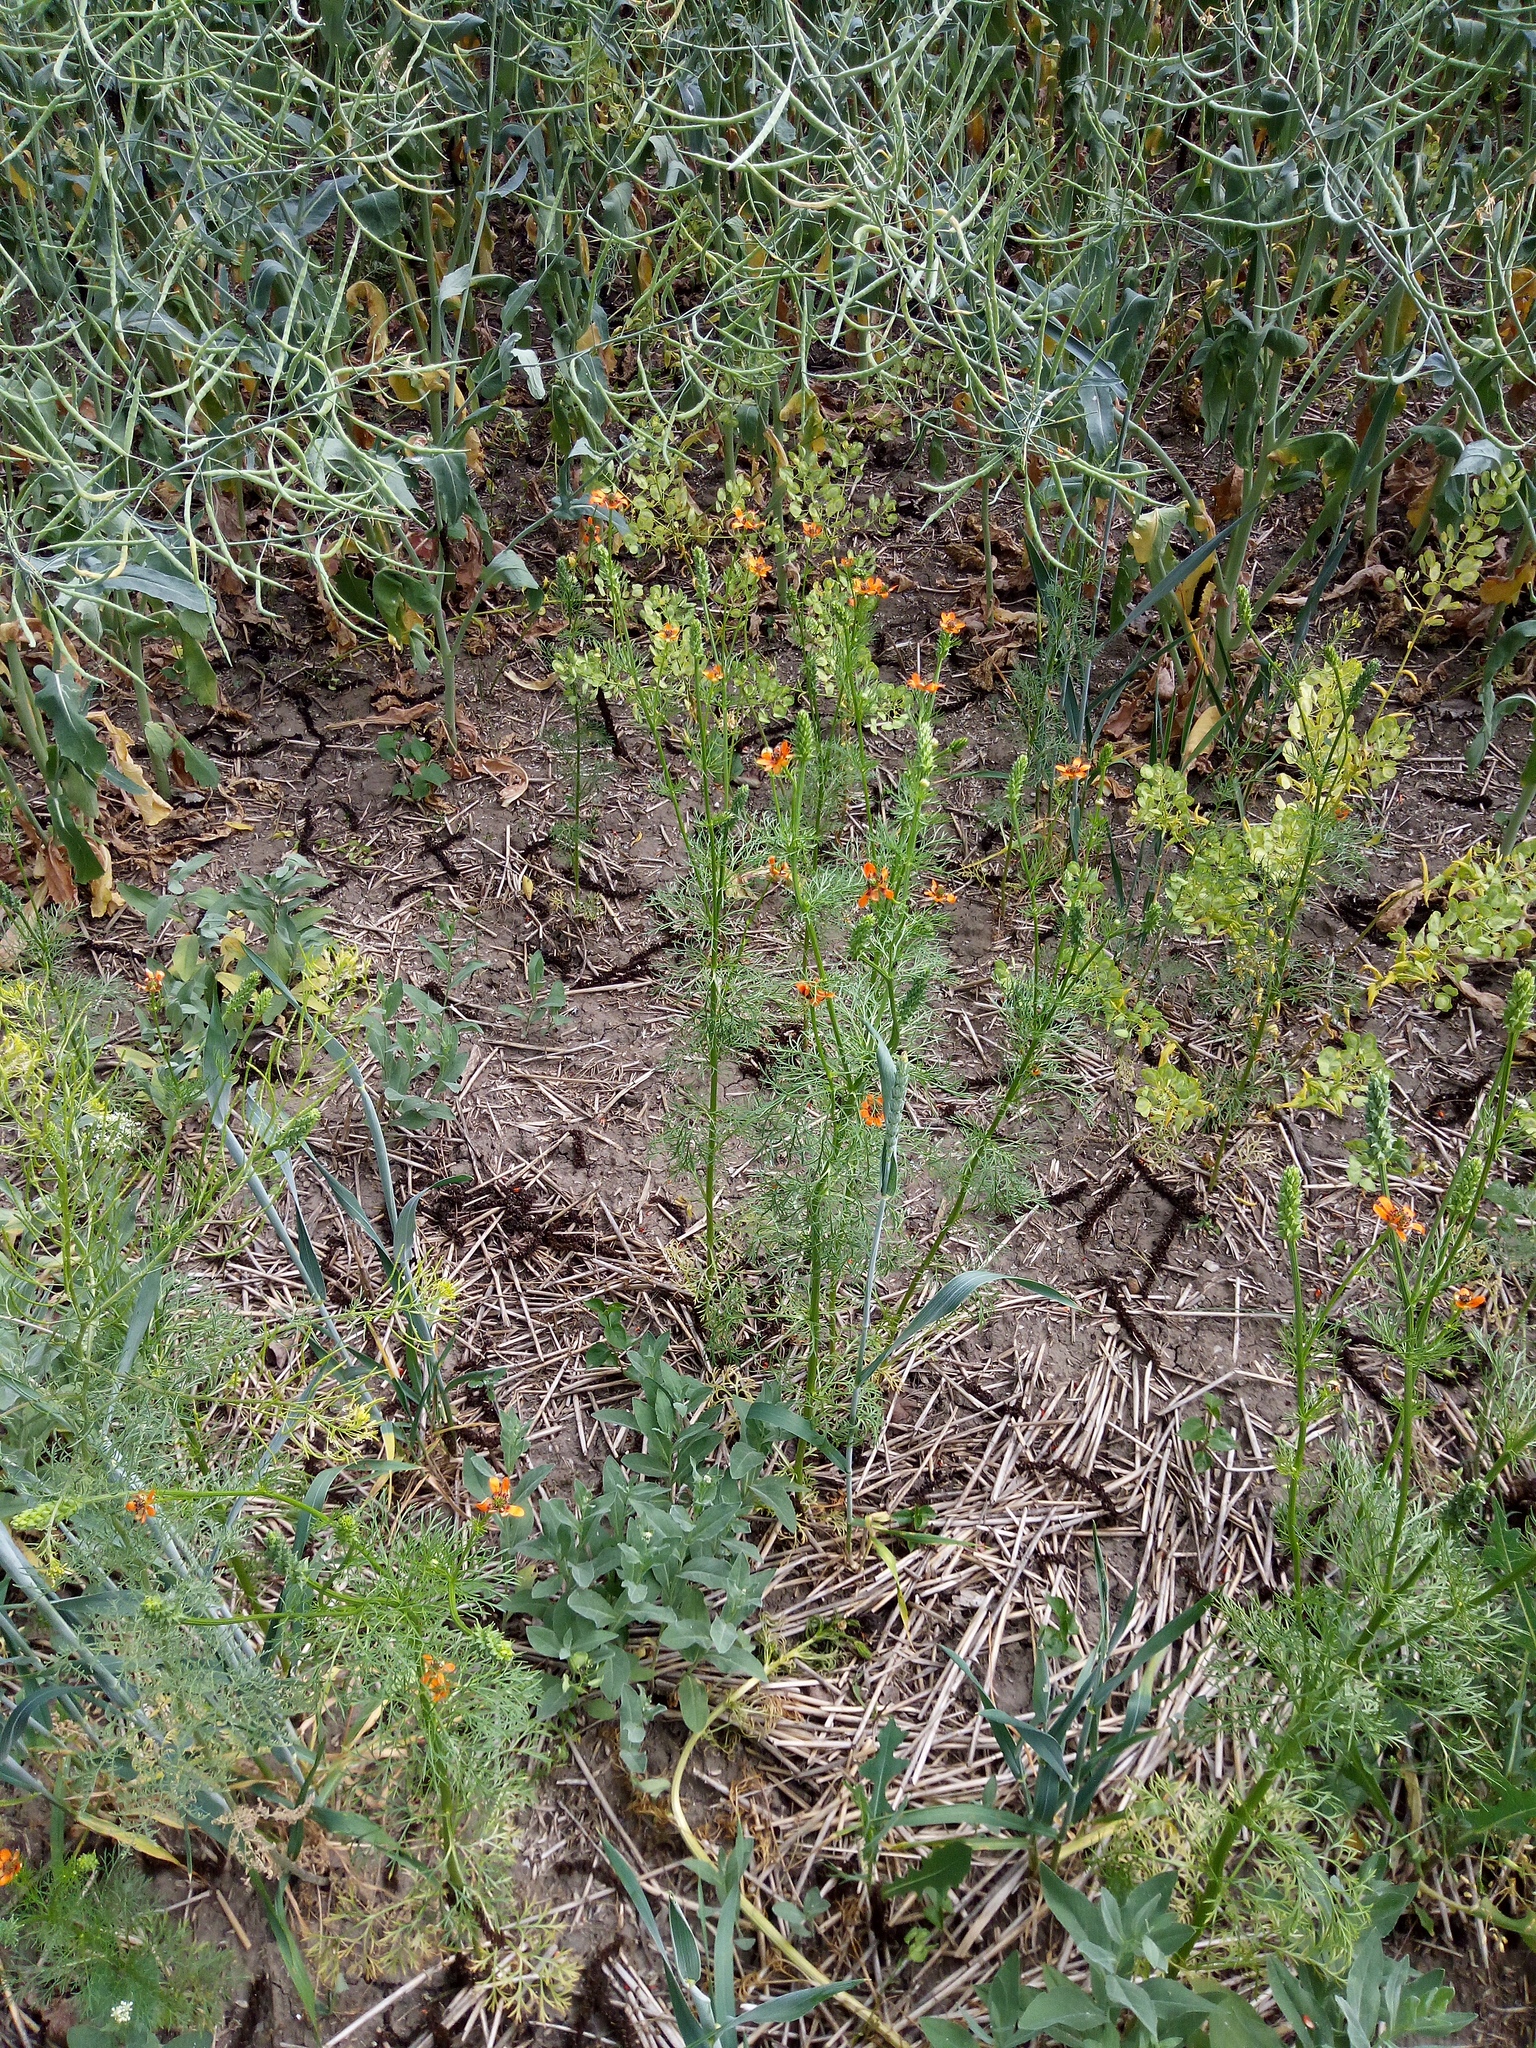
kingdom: Plantae
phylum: Tracheophyta
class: Magnoliopsida
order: Ranunculales
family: Ranunculaceae
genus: Adonis
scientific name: Adonis aestivalis
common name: Summer pheasant's-eye
